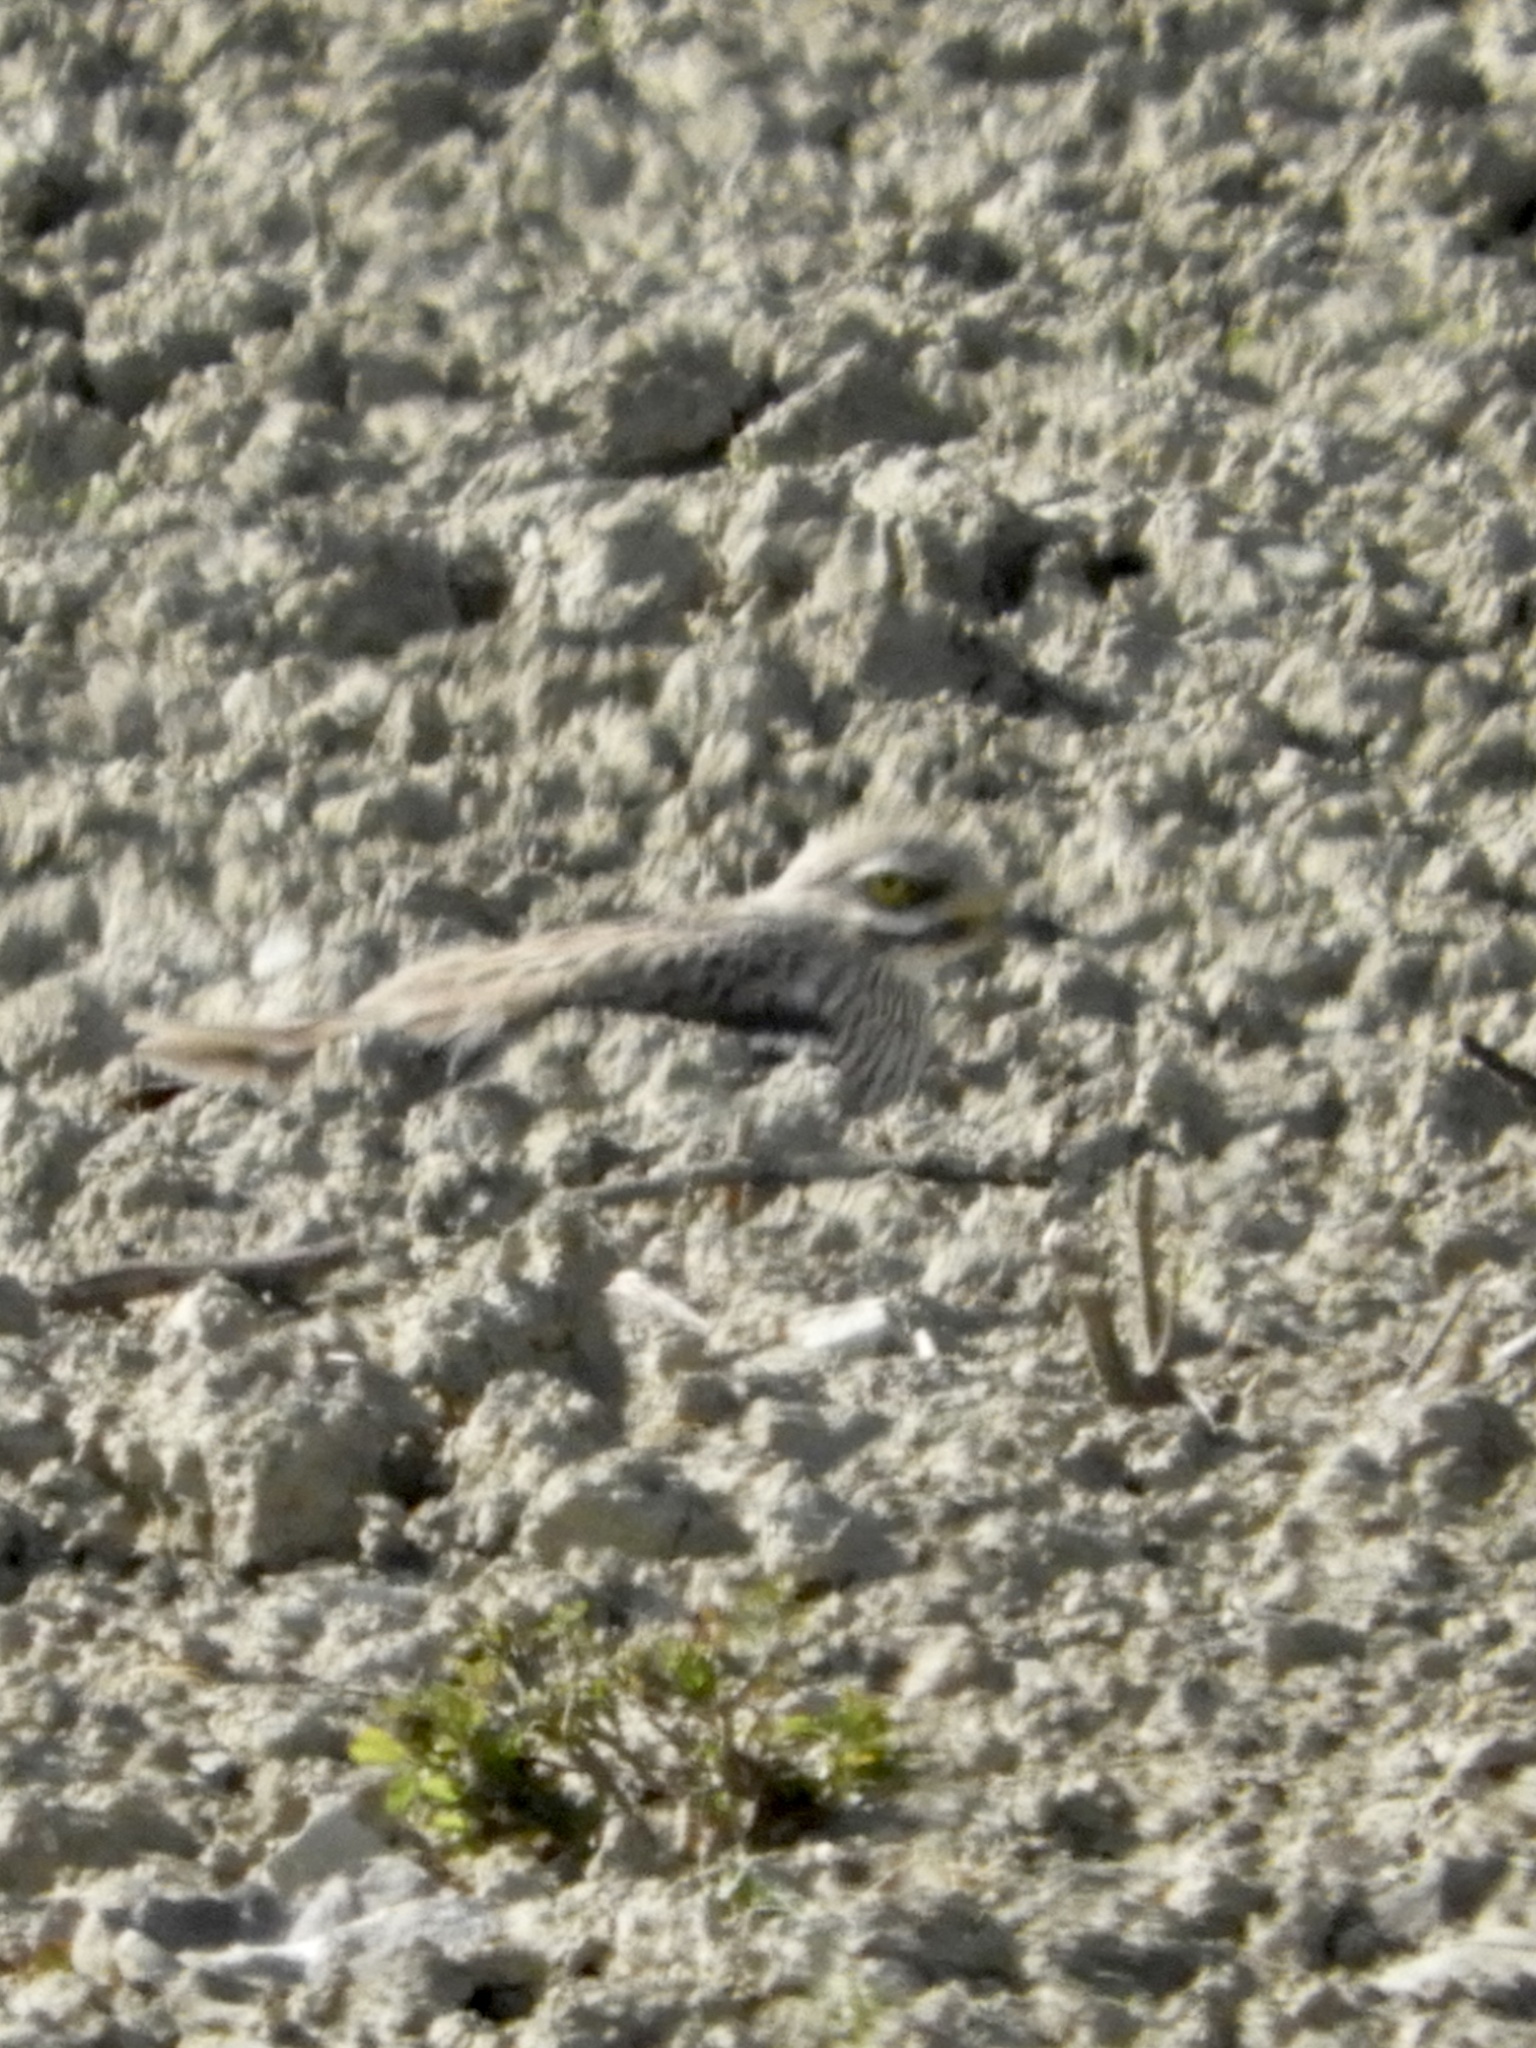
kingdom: Animalia
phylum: Chordata
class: Aves
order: Charadriiformes
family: Burhinidae
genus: Burhinus
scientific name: Burhinus oedicnemus
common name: Eurasian stone-curlew
